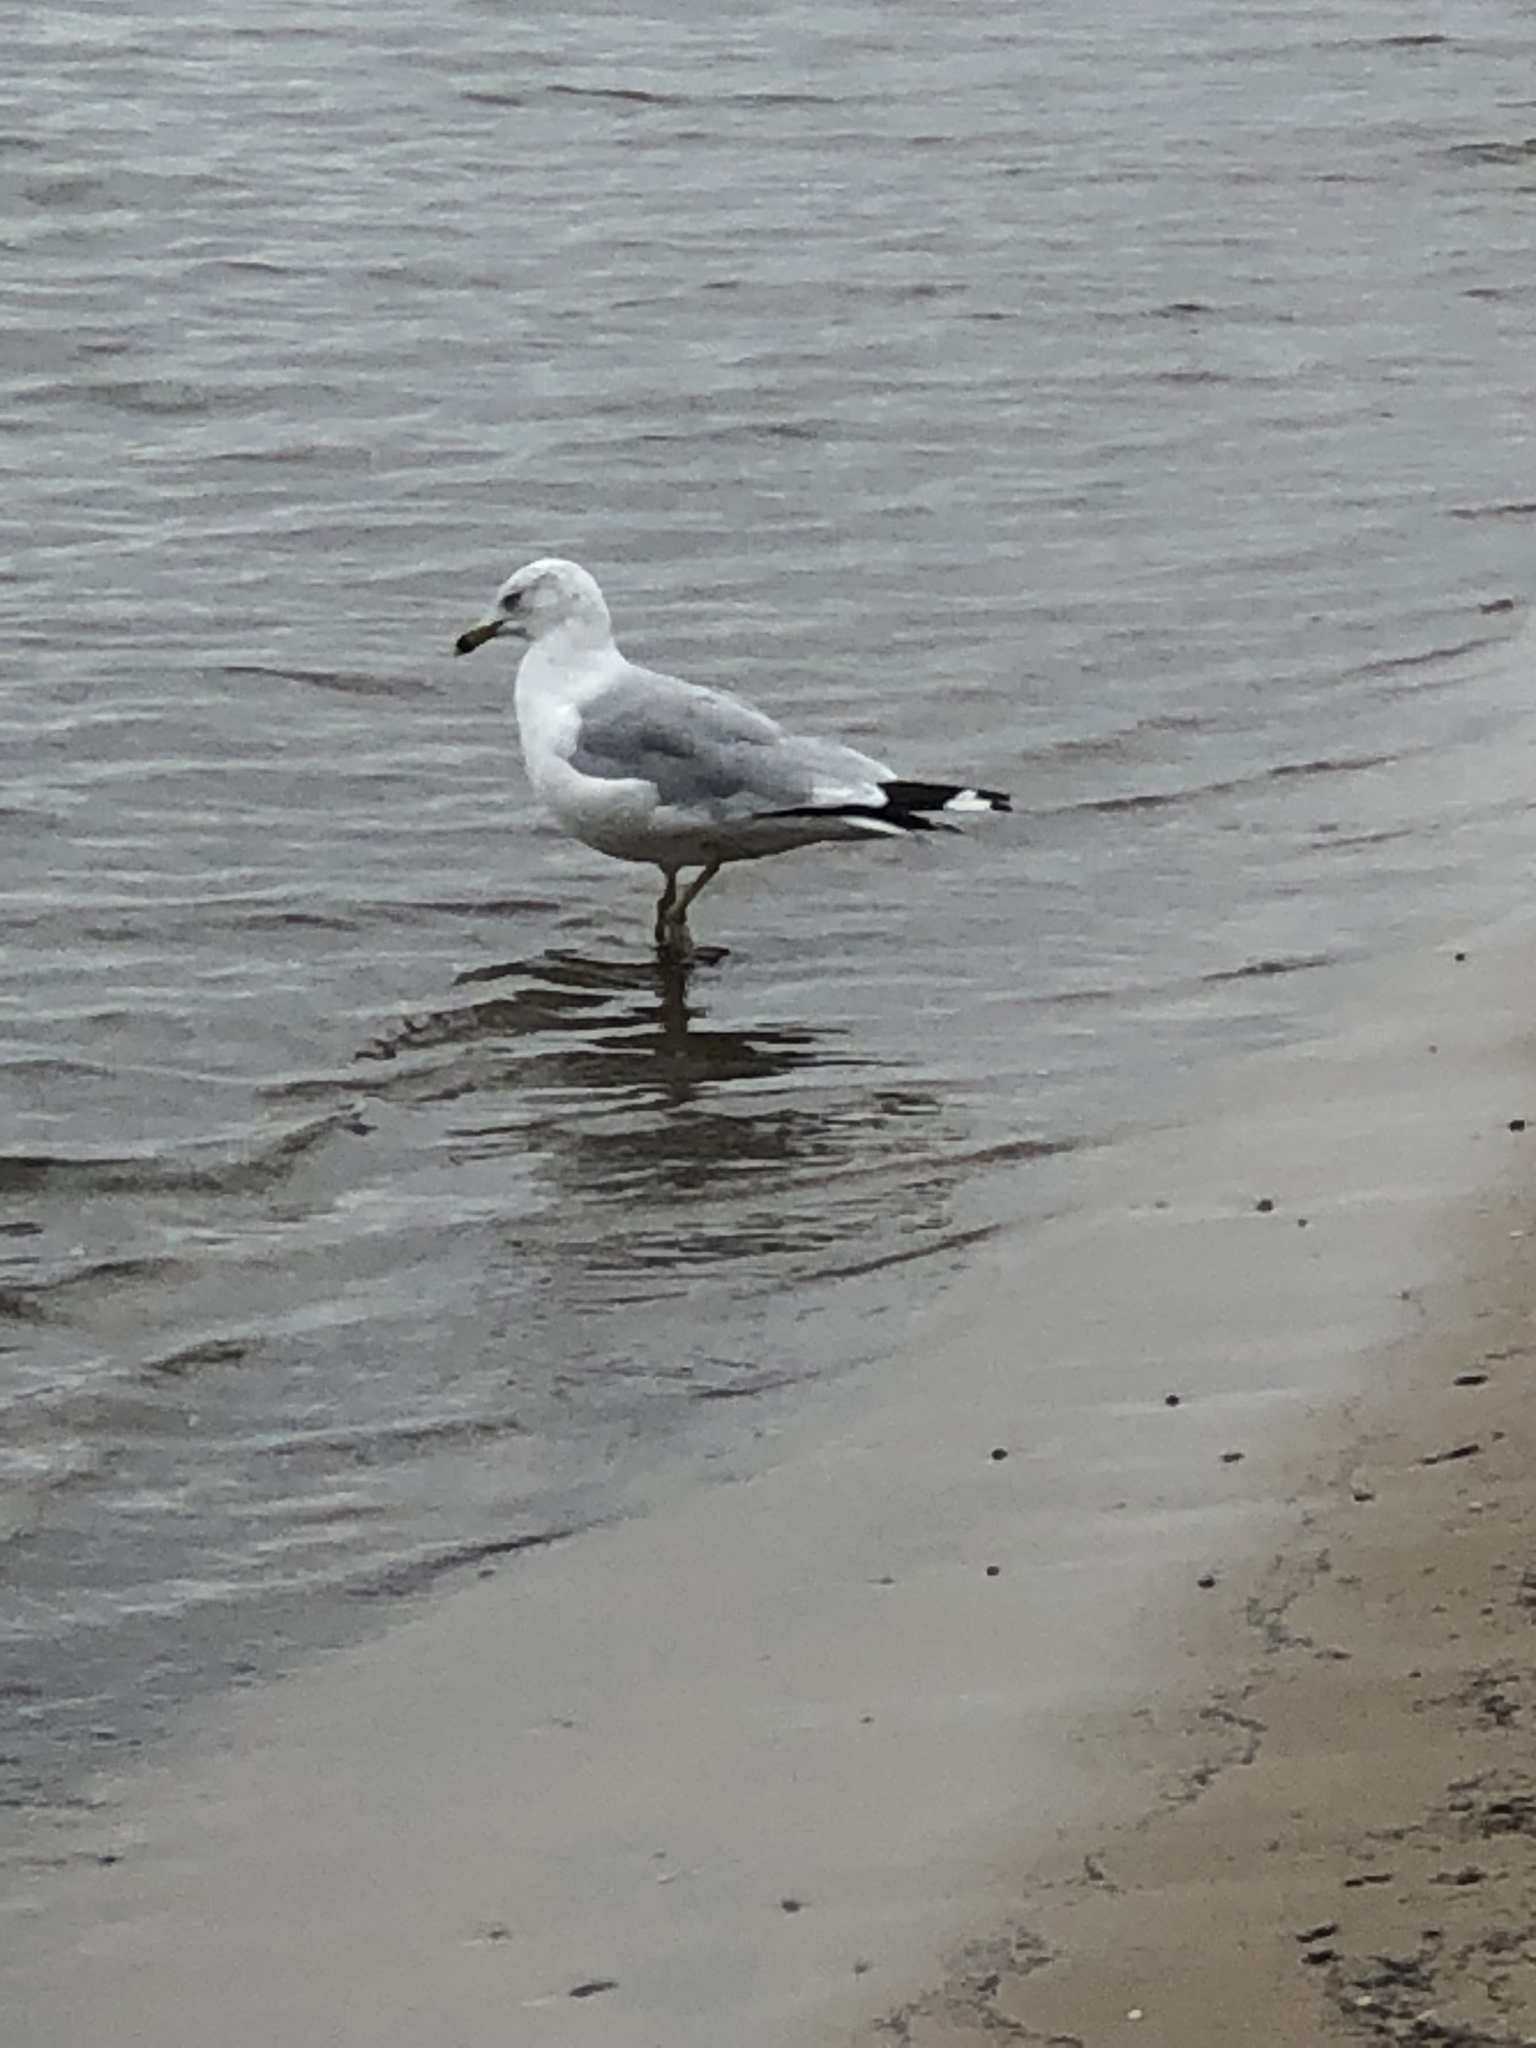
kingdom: Animalia
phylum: Chordata
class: Aves
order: Charadriiformes
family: Laridae
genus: Larus
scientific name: Larus delawarensis
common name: Ring-billed gull
